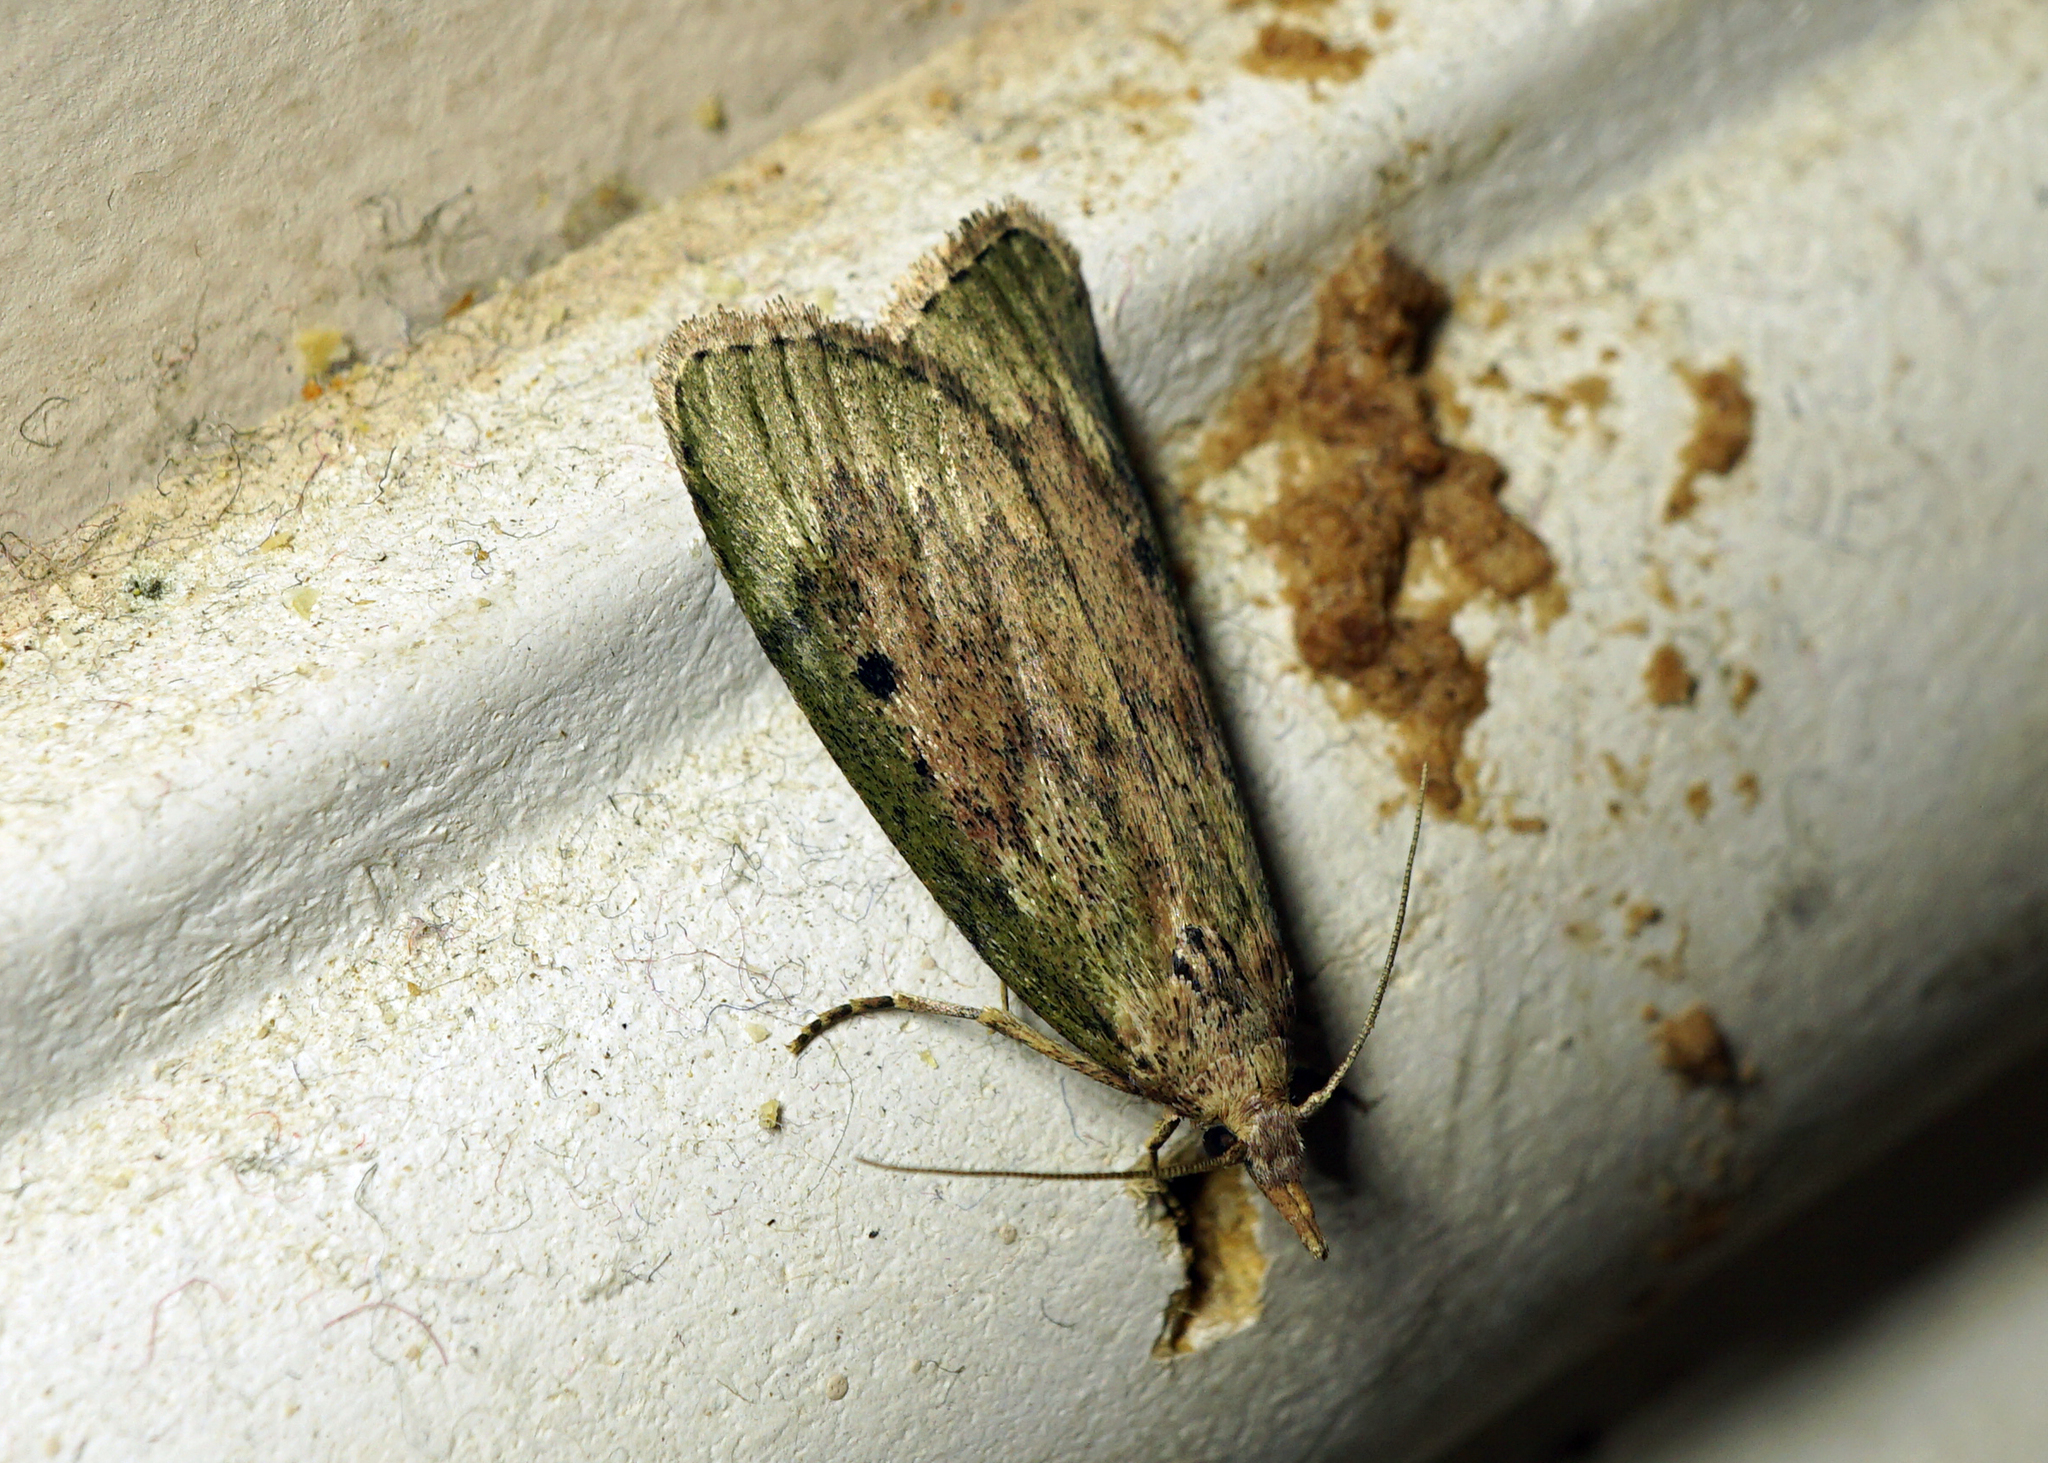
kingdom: Animalia
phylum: Arthropoda
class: Insecta
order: Lepidoptera
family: Pyralidae
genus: Aphomia
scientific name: Aphomia sociella
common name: Bee moth
